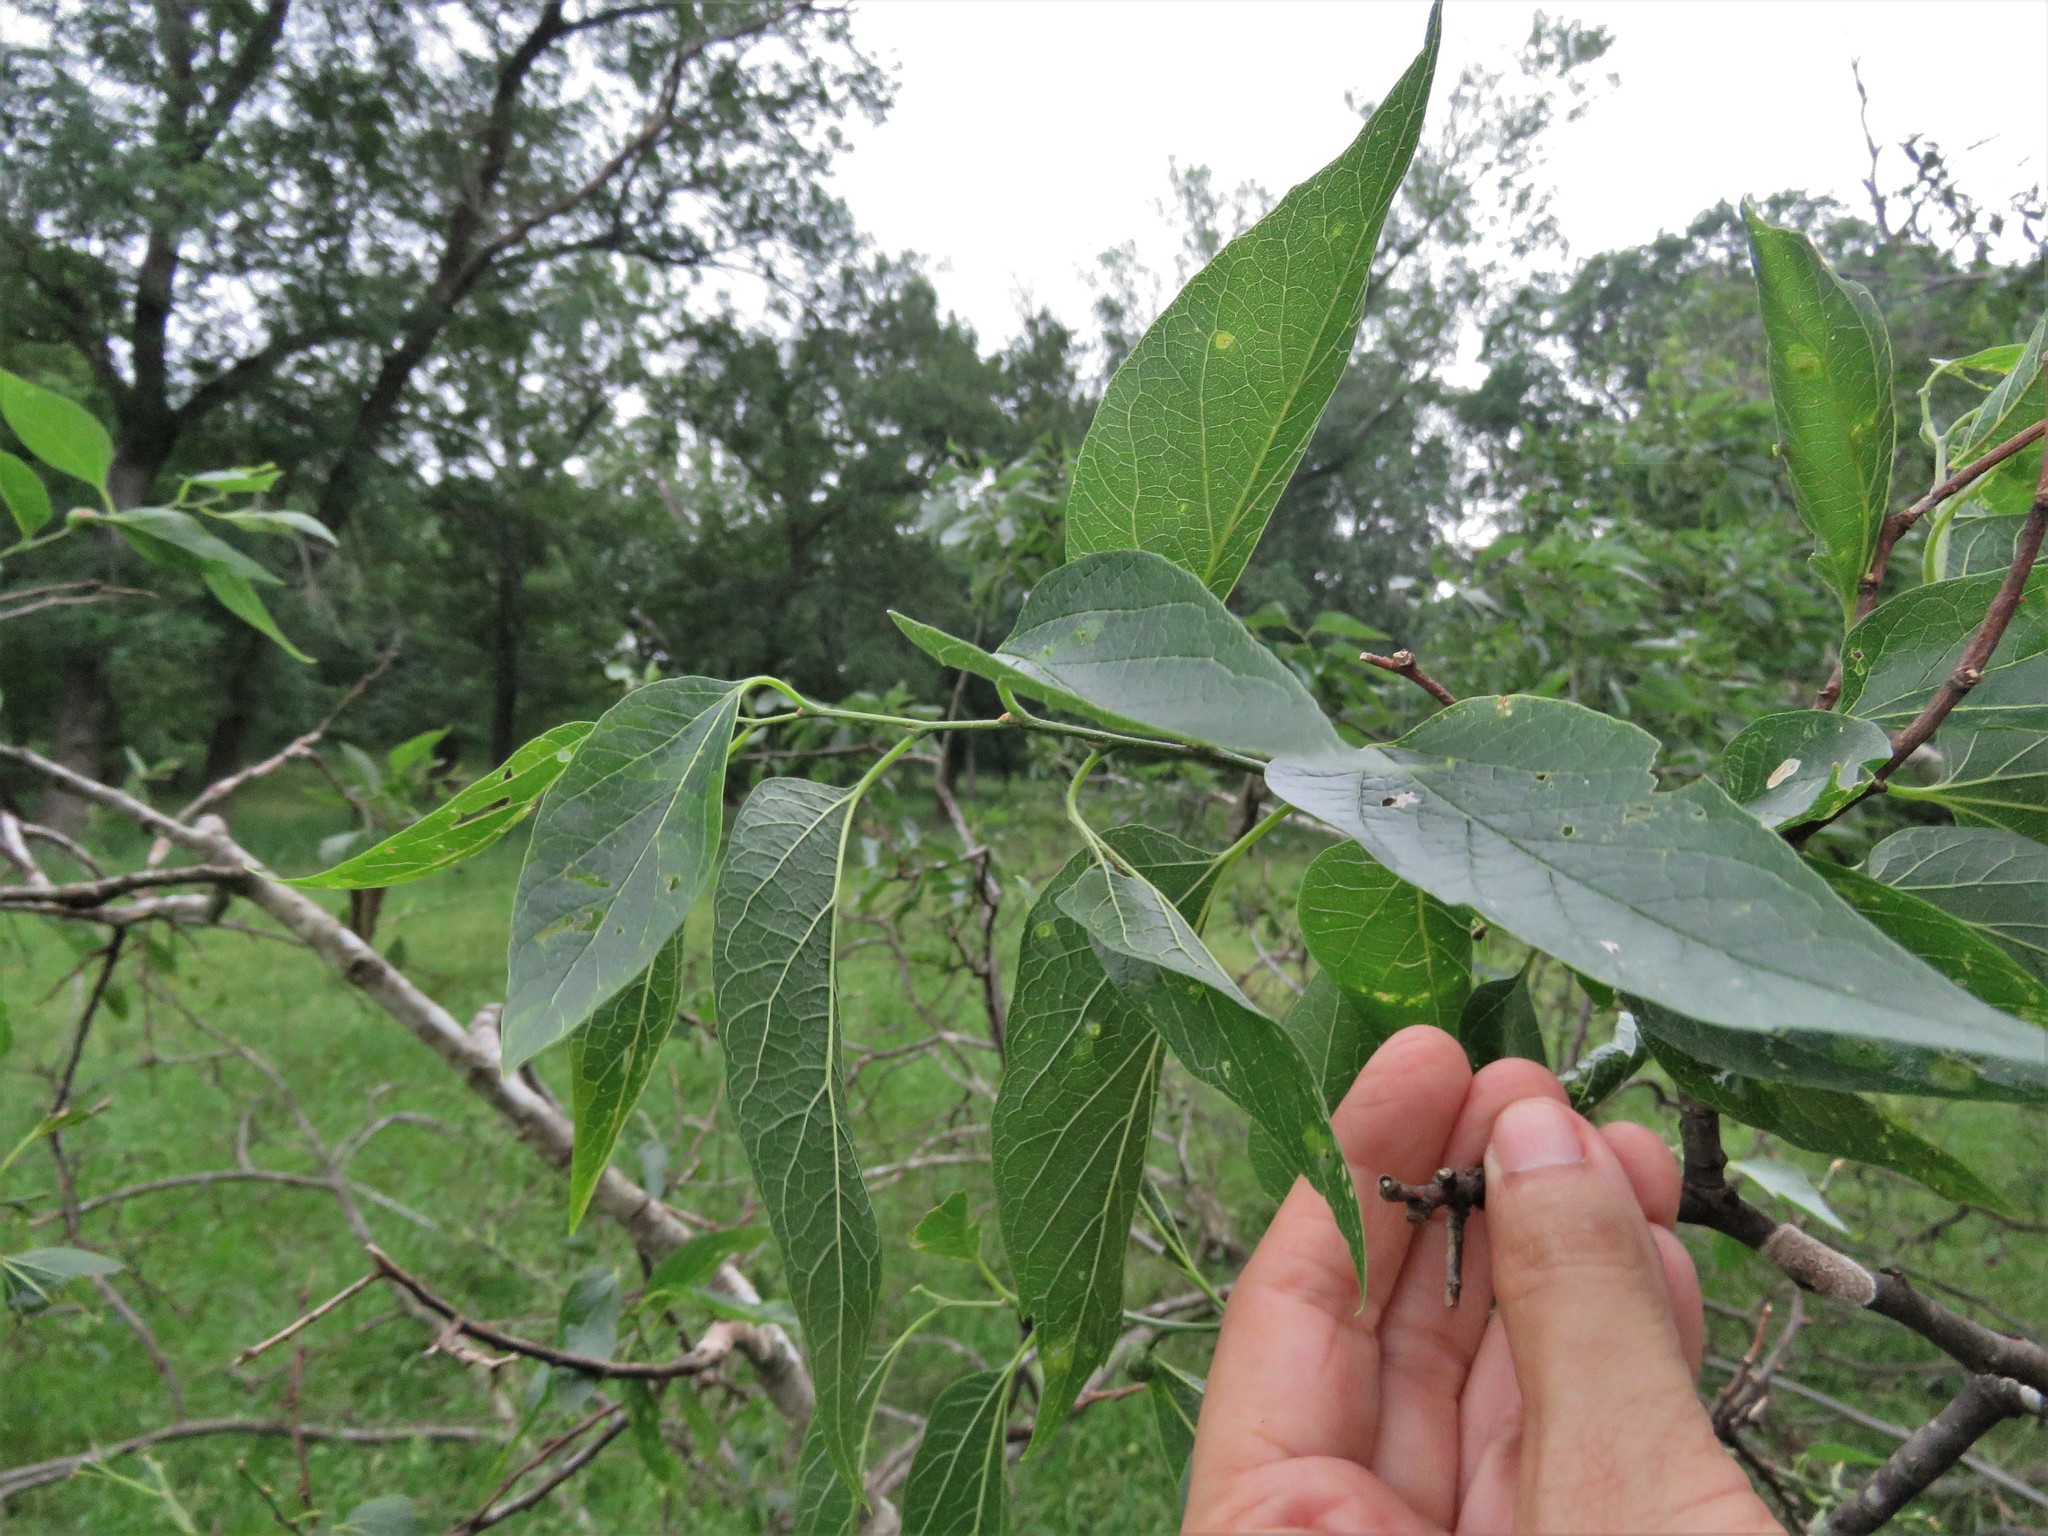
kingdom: Plantae
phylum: Tracheophyta
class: Magnoliopsida
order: Rosales
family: Cannabaceae
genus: Celtis
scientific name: Celtis laevigata
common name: Sugarberry
